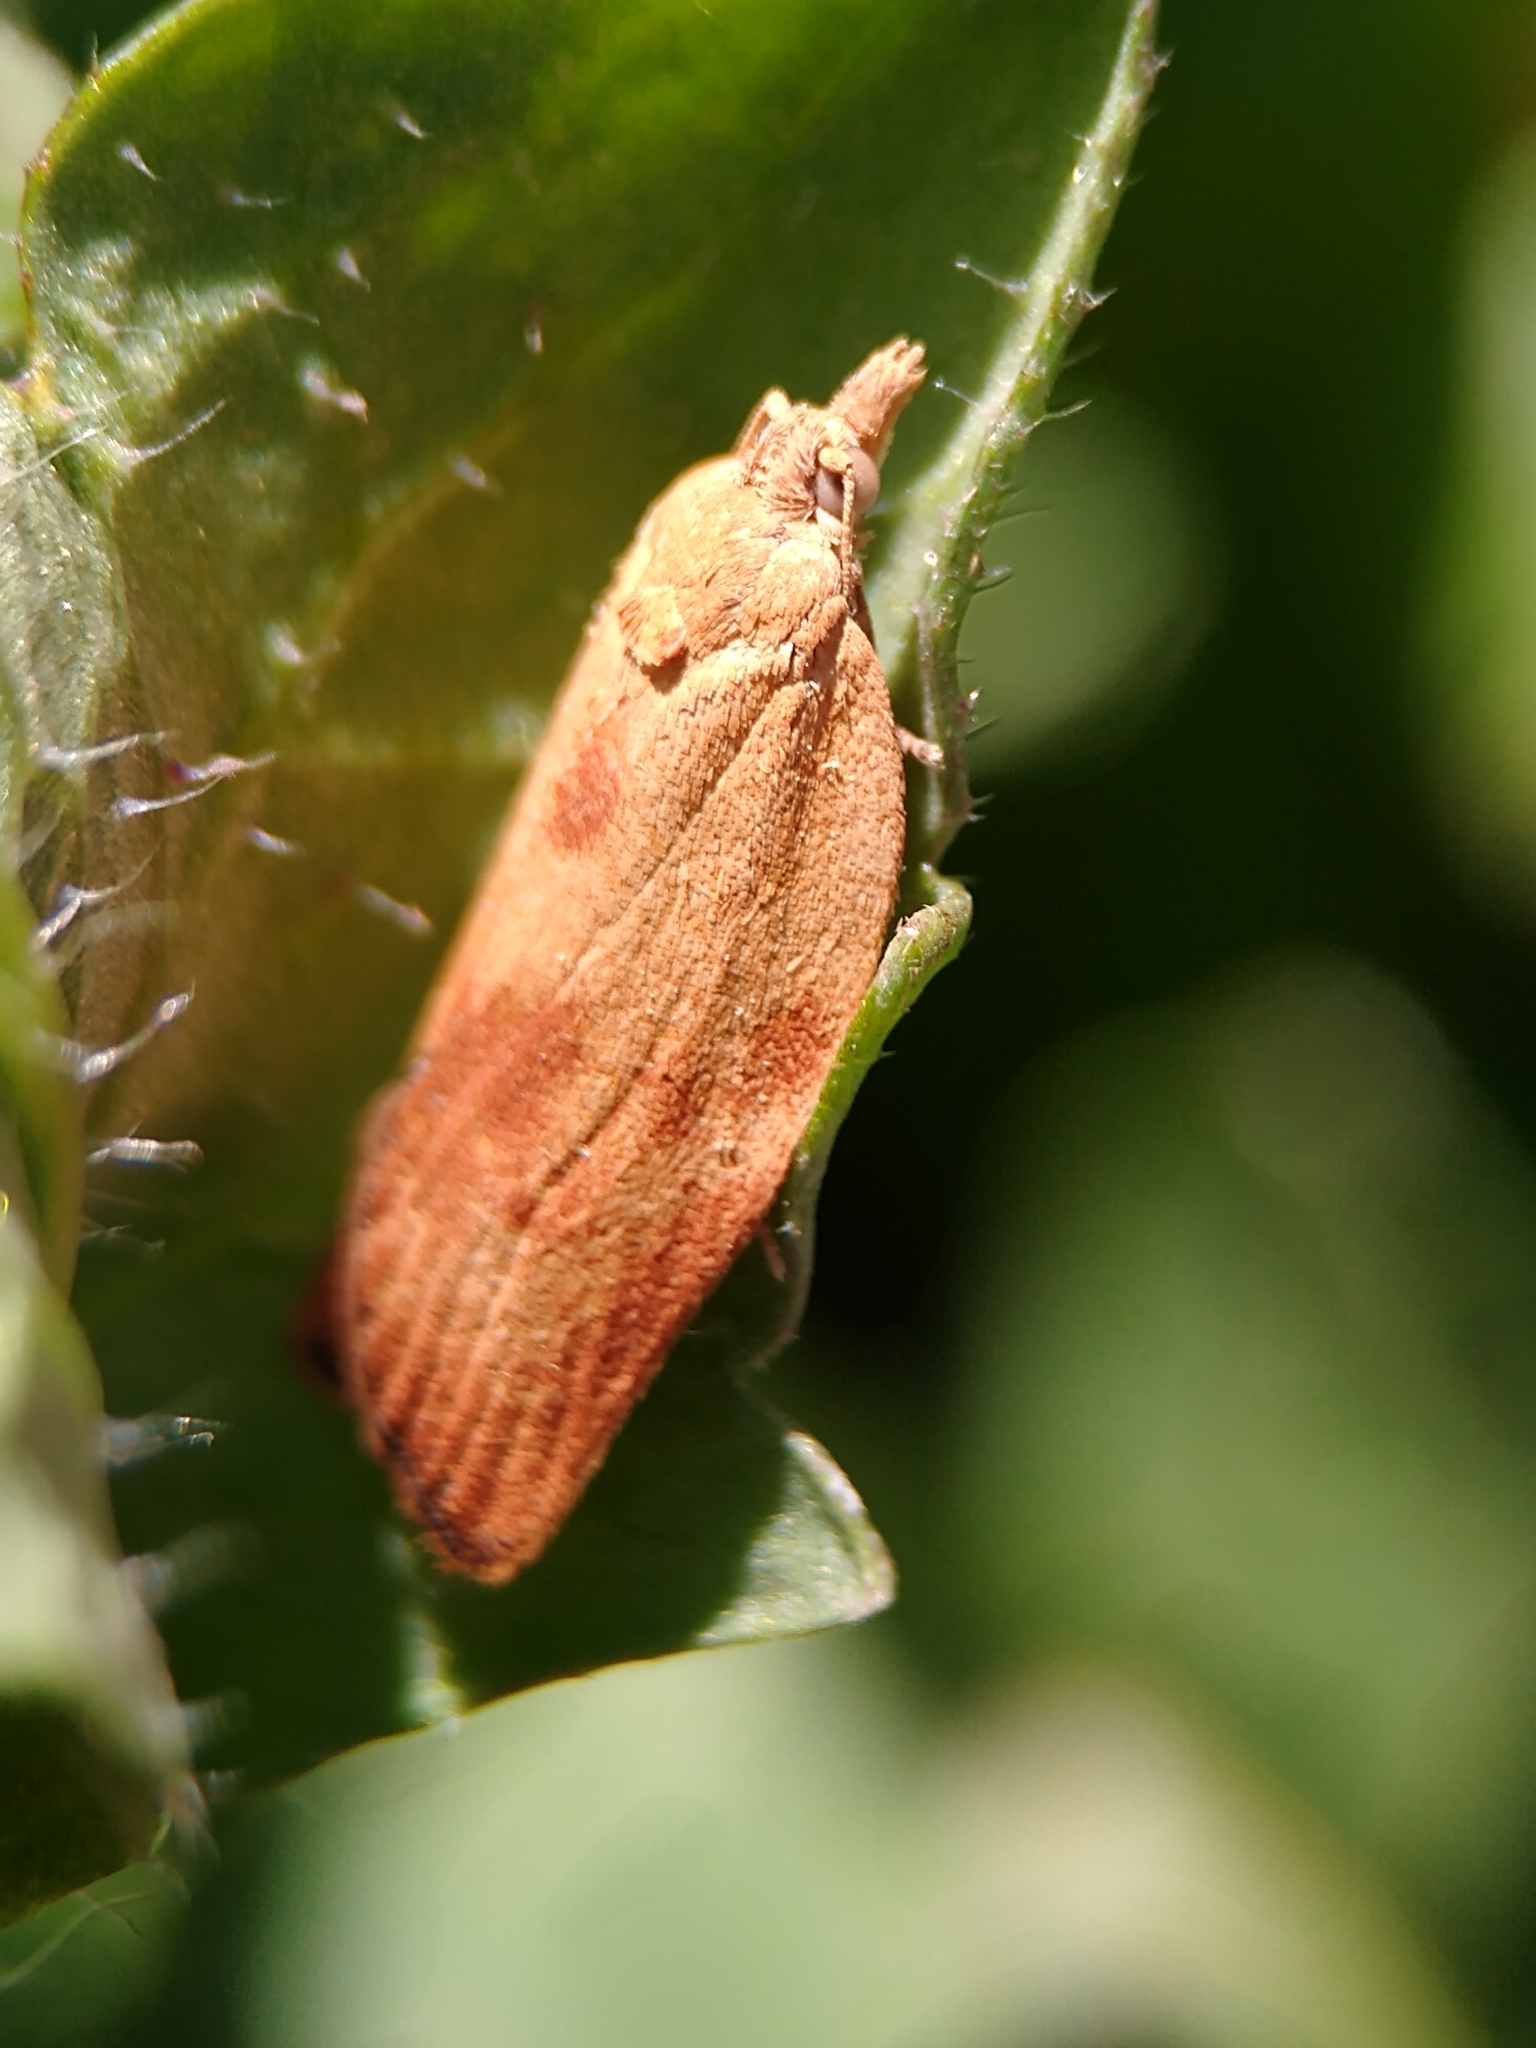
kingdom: Animalia
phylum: Arthropoda
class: Insecta
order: Lepidoptera
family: Tortricidae
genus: Epiphyas
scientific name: Epiphyas postvittana
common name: Light brown apple moth
